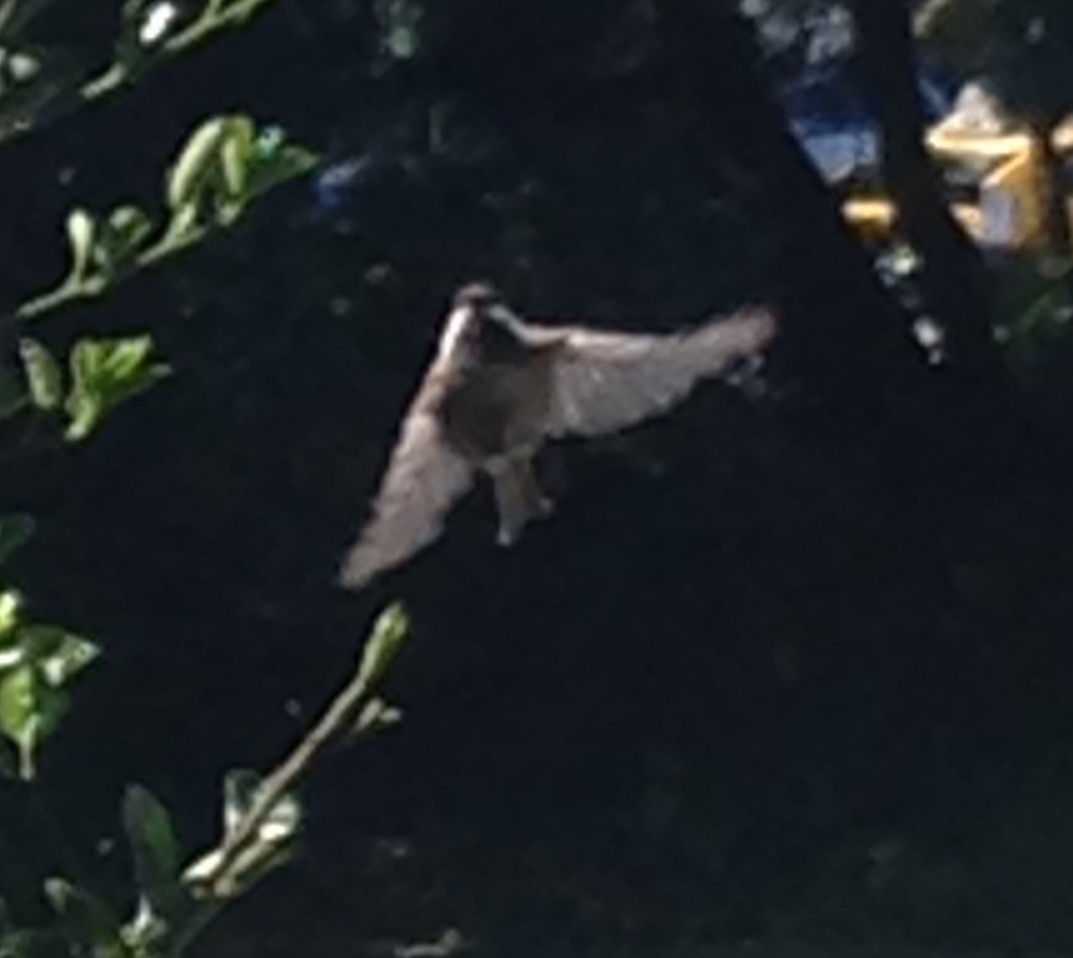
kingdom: Animalia
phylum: Chordata
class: Aves
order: Passeriformes
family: Tyrannidae
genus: Sayornis
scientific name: Sayornis nigricans
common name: Black phoebe
